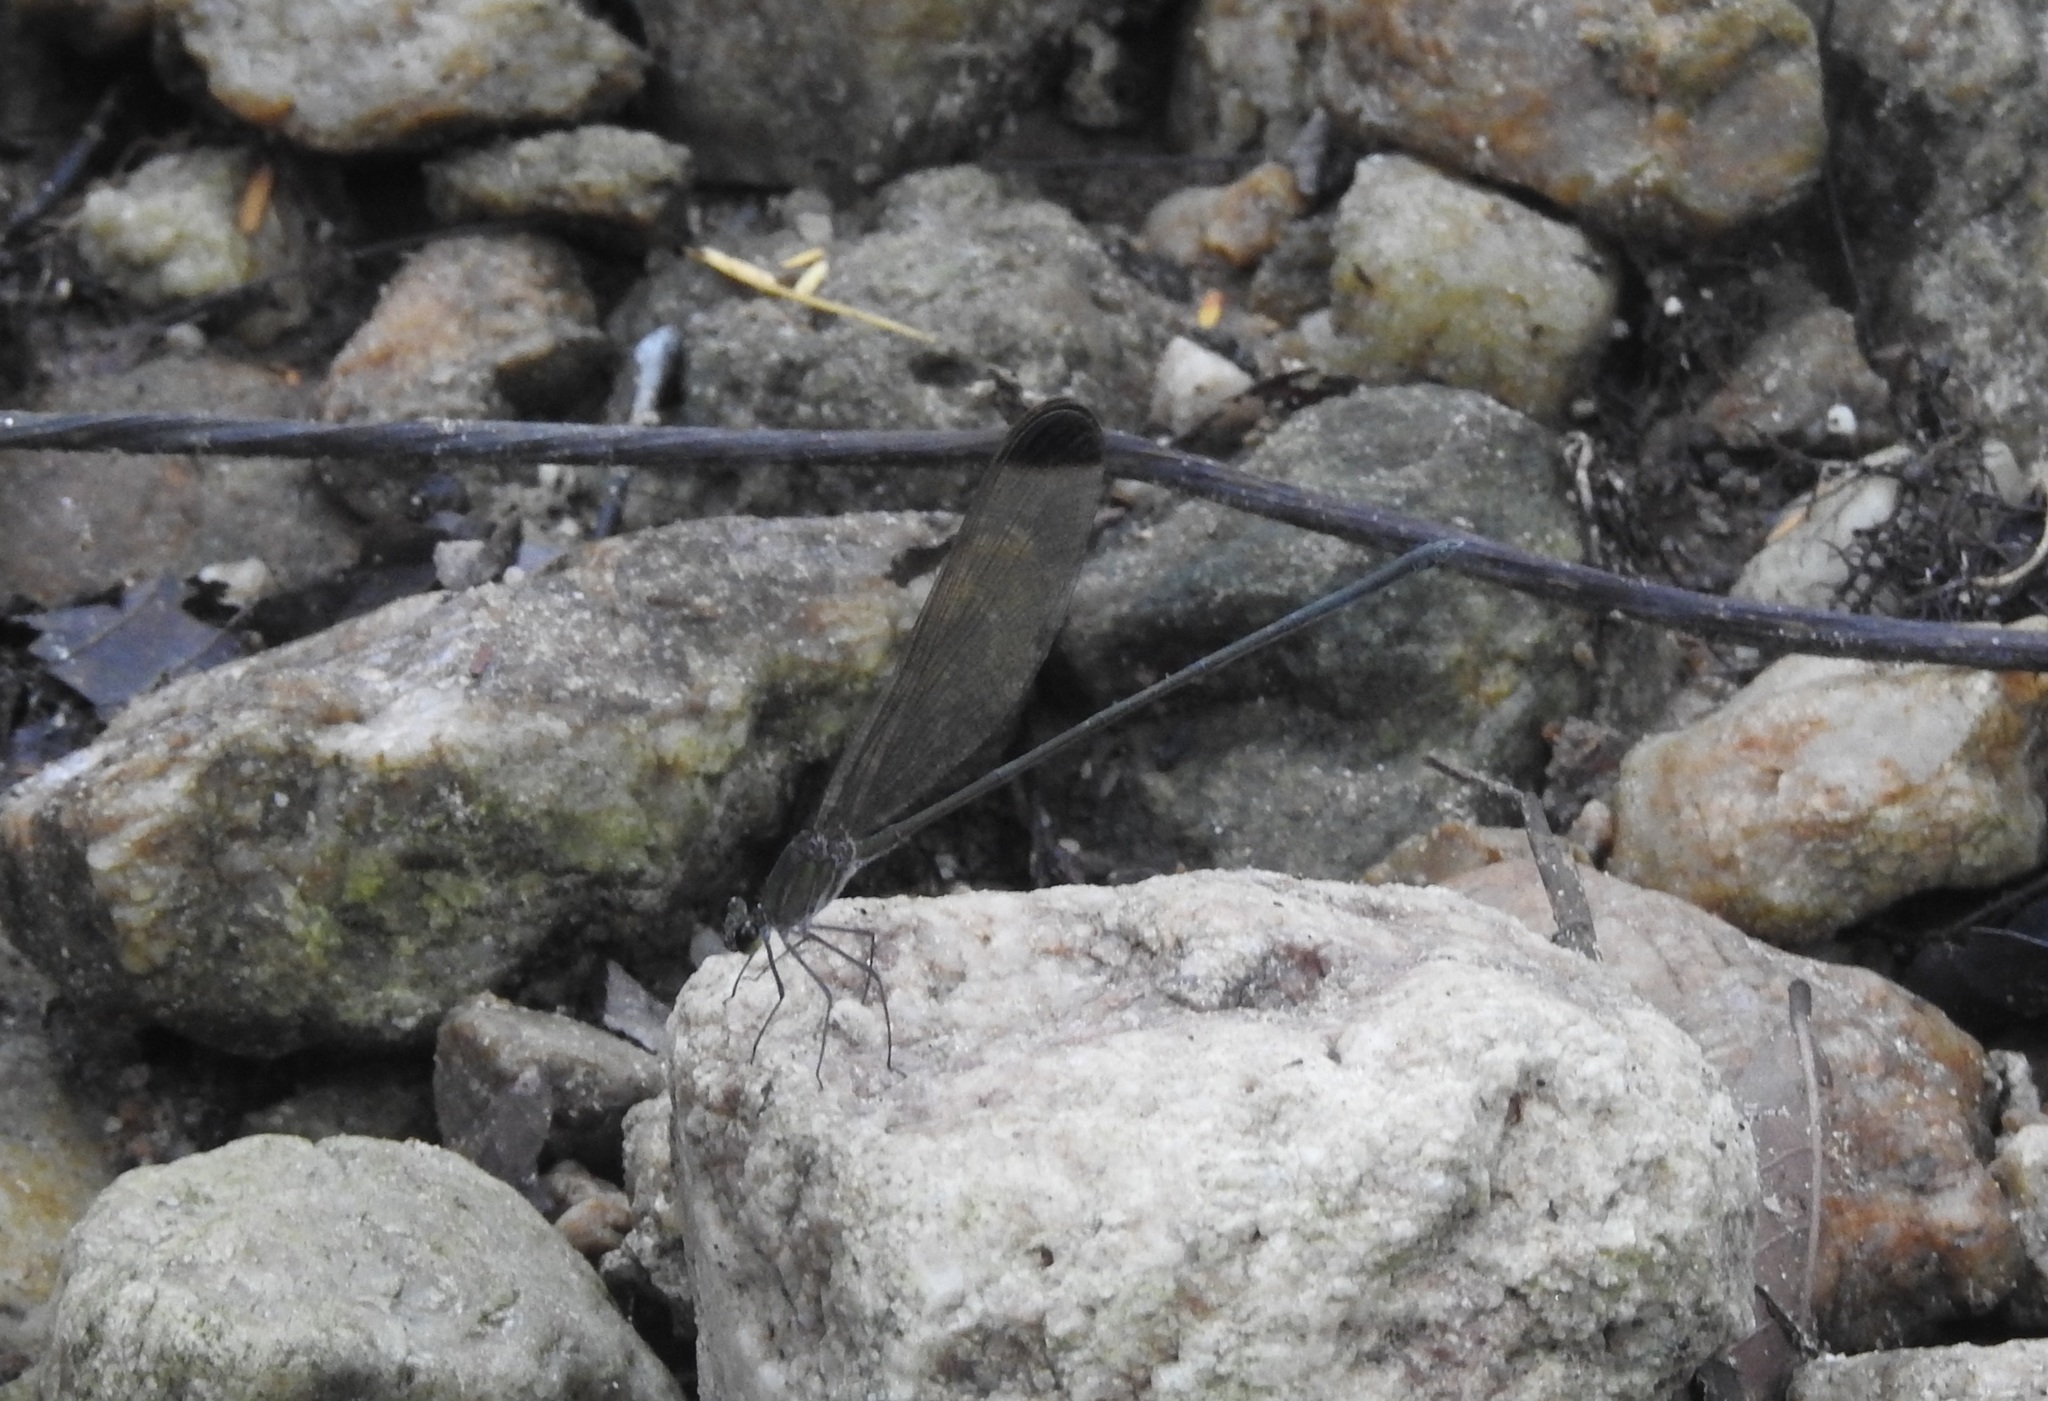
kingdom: Animalia
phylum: Arthropoda
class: Insecta
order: Odonata
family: Calopterygidae
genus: Vestalis
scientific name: Vestalis apicalis
